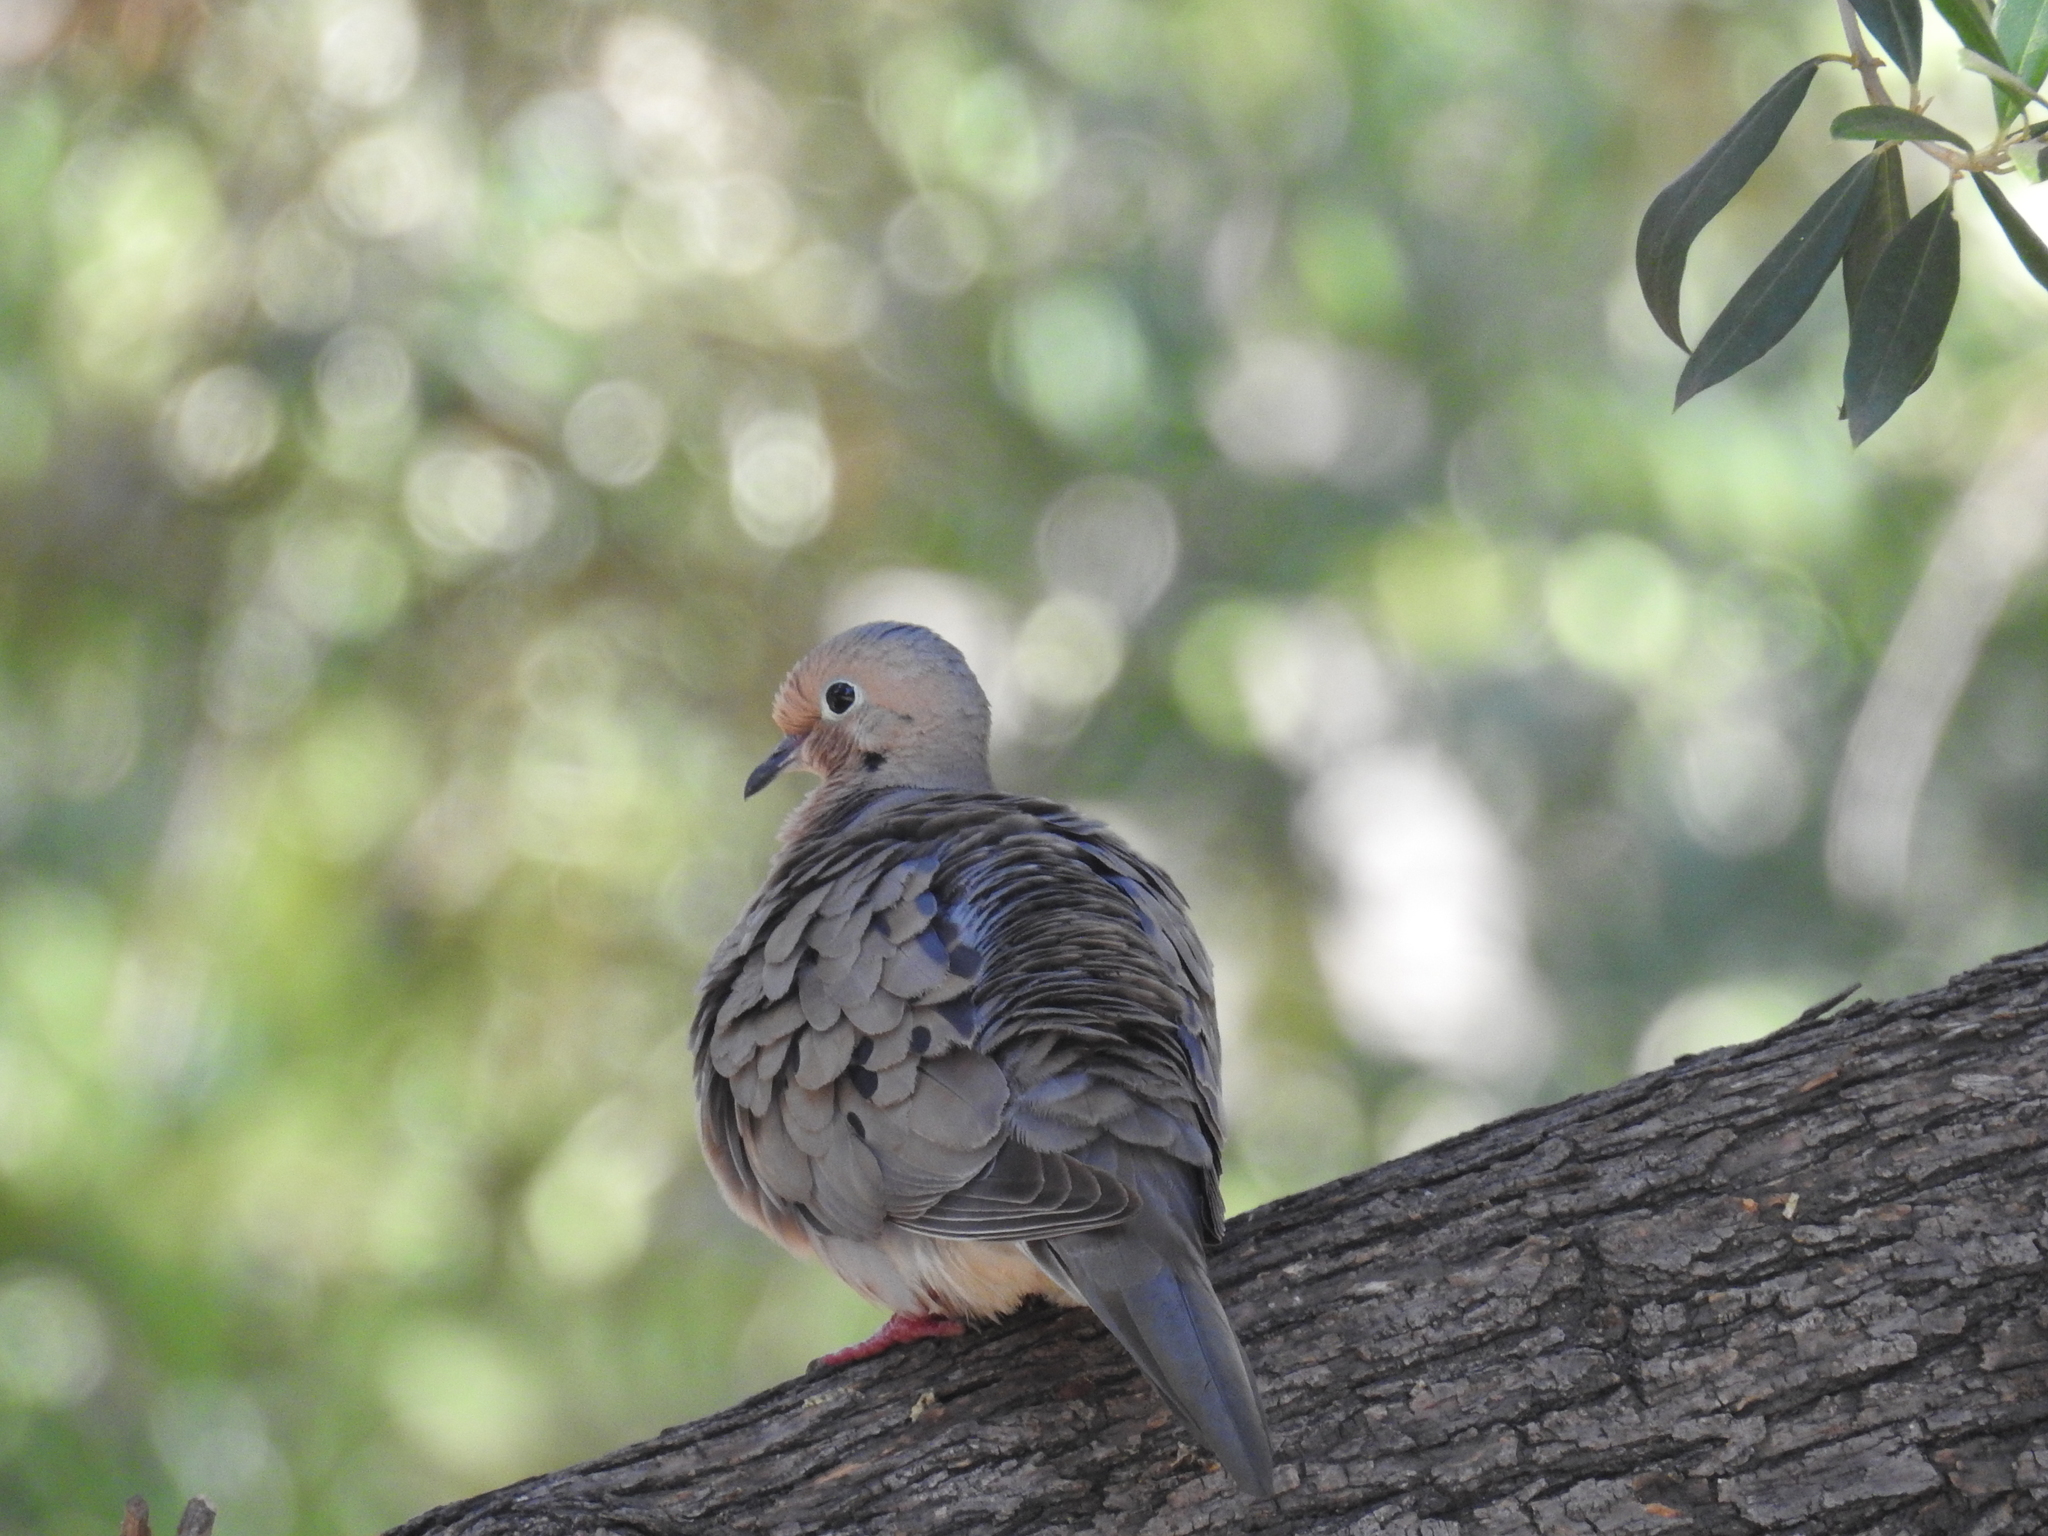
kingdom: Animalia
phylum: Chordata
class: Aves
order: Columbiformes
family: Columbidae
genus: Zenaida
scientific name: Zenaida macroura
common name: Mourning dove
